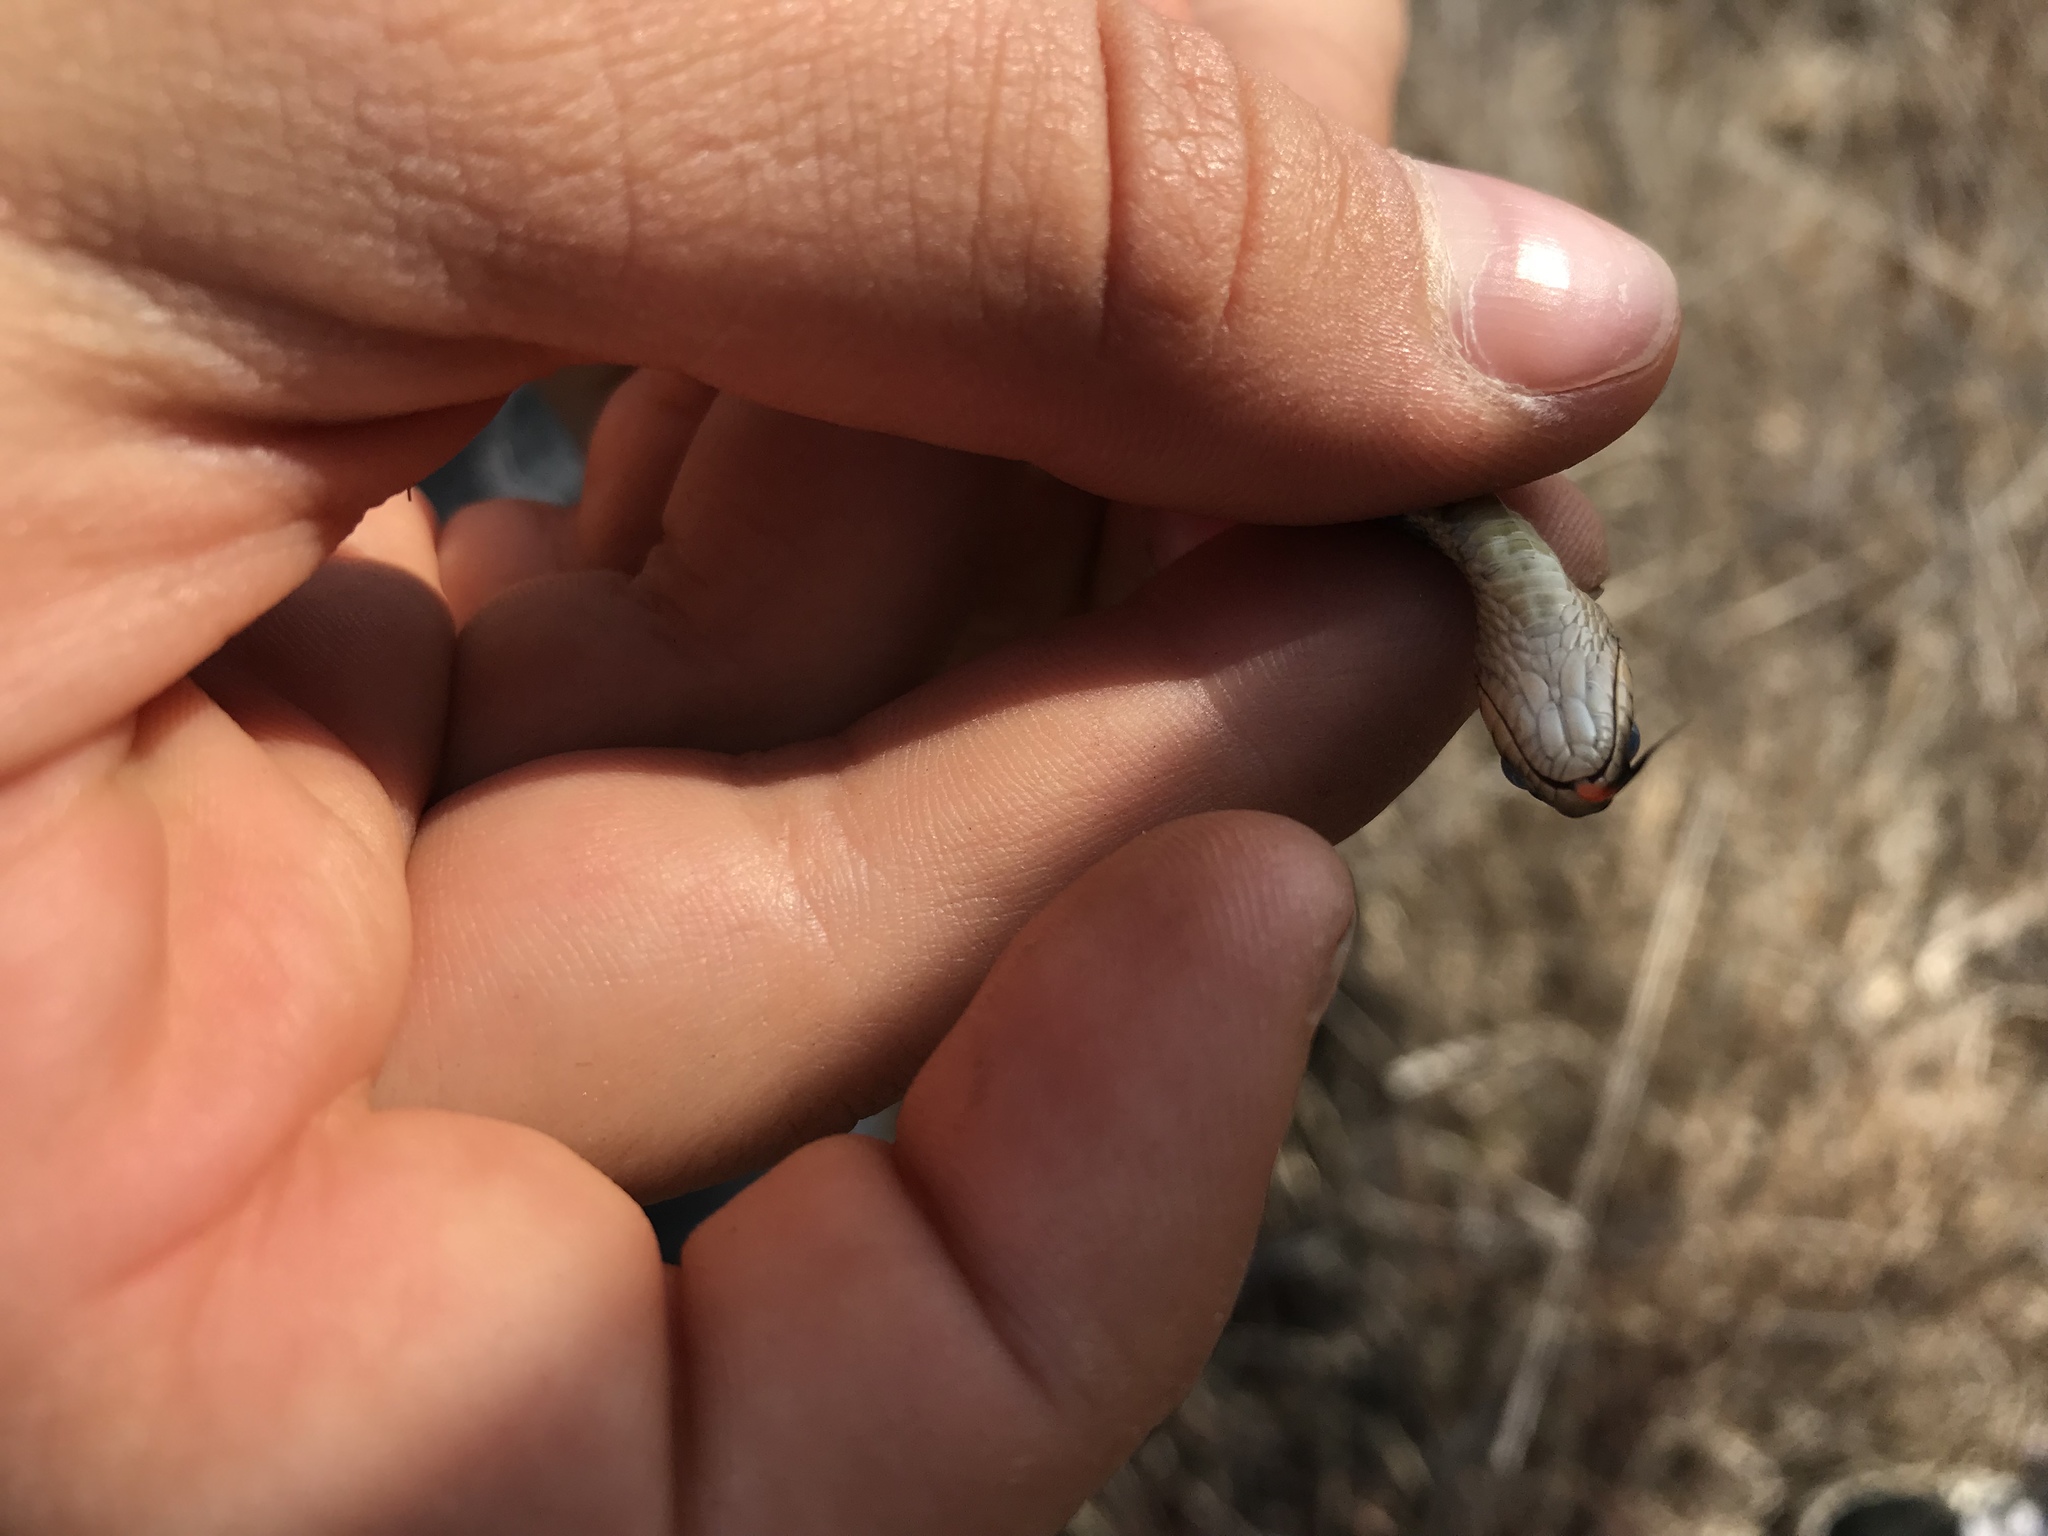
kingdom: Animalia
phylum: Chordata
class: Squamata
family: Colubridae
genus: Thamnophis
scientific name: Thamnophis elegans
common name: Western terrestrial garter snake
